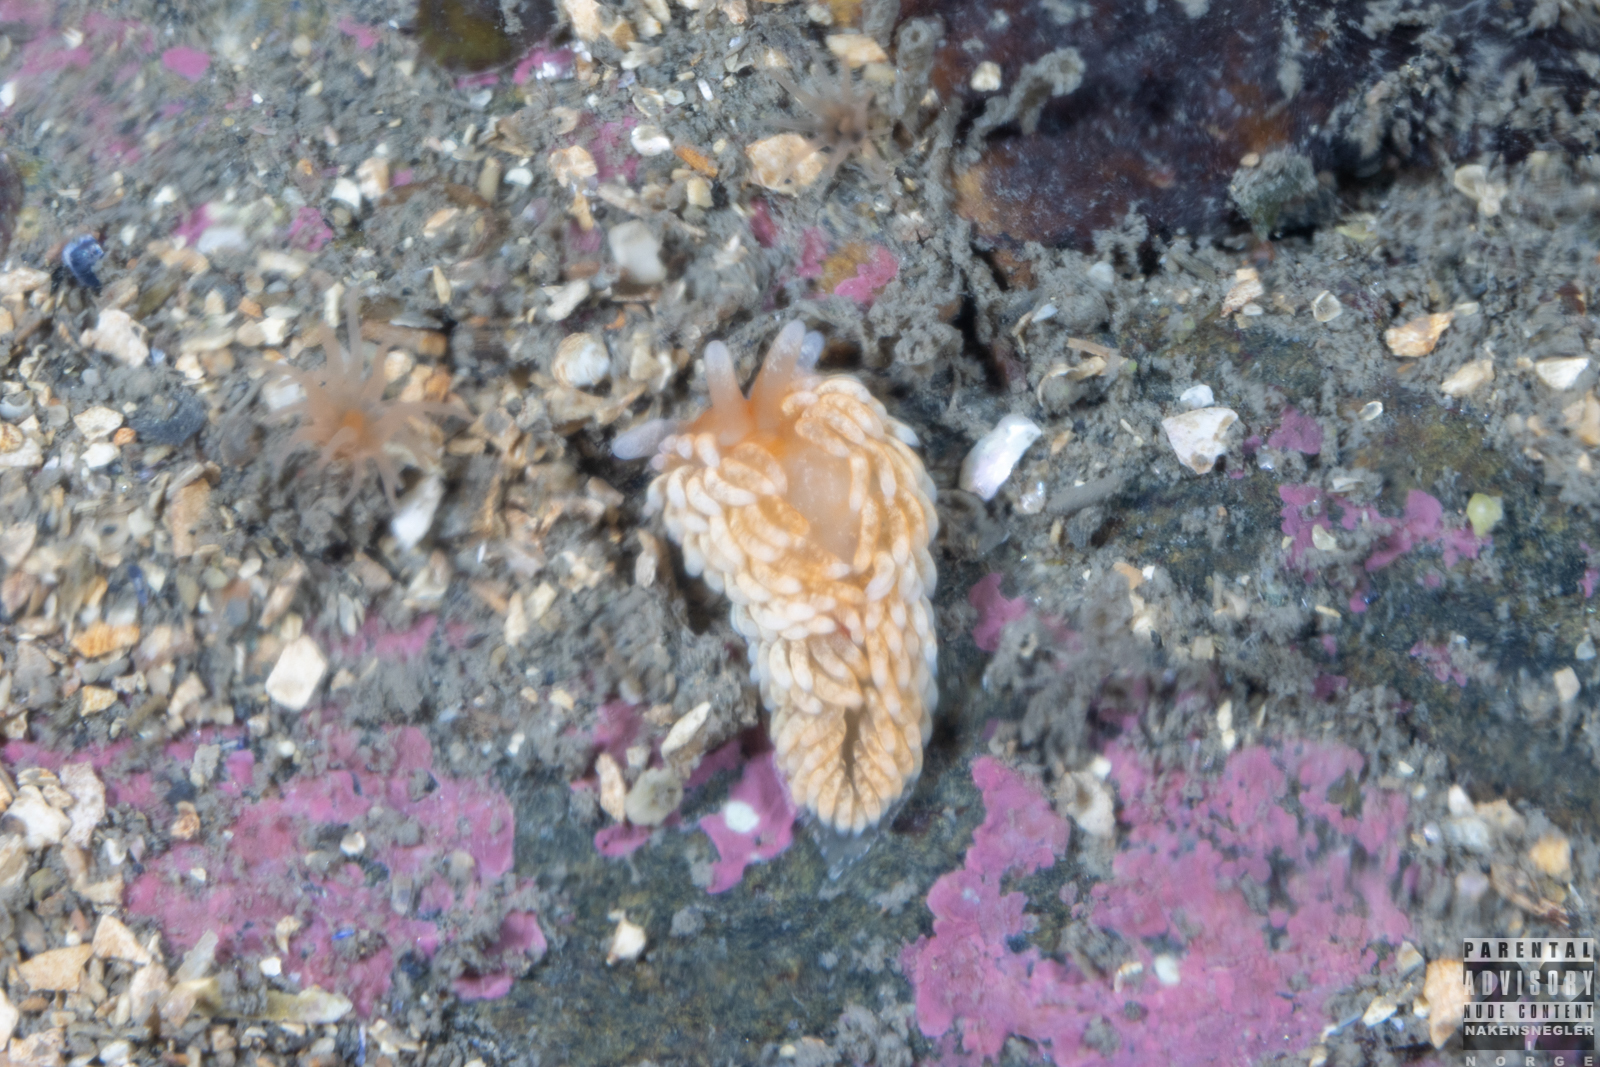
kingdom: Animalia
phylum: Mollusca
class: Gastropoda
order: Nudibranchia
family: Aeolidiidae
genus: Aeolidiella
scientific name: Aeolidiella glauca
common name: Orange-brown aeolid
